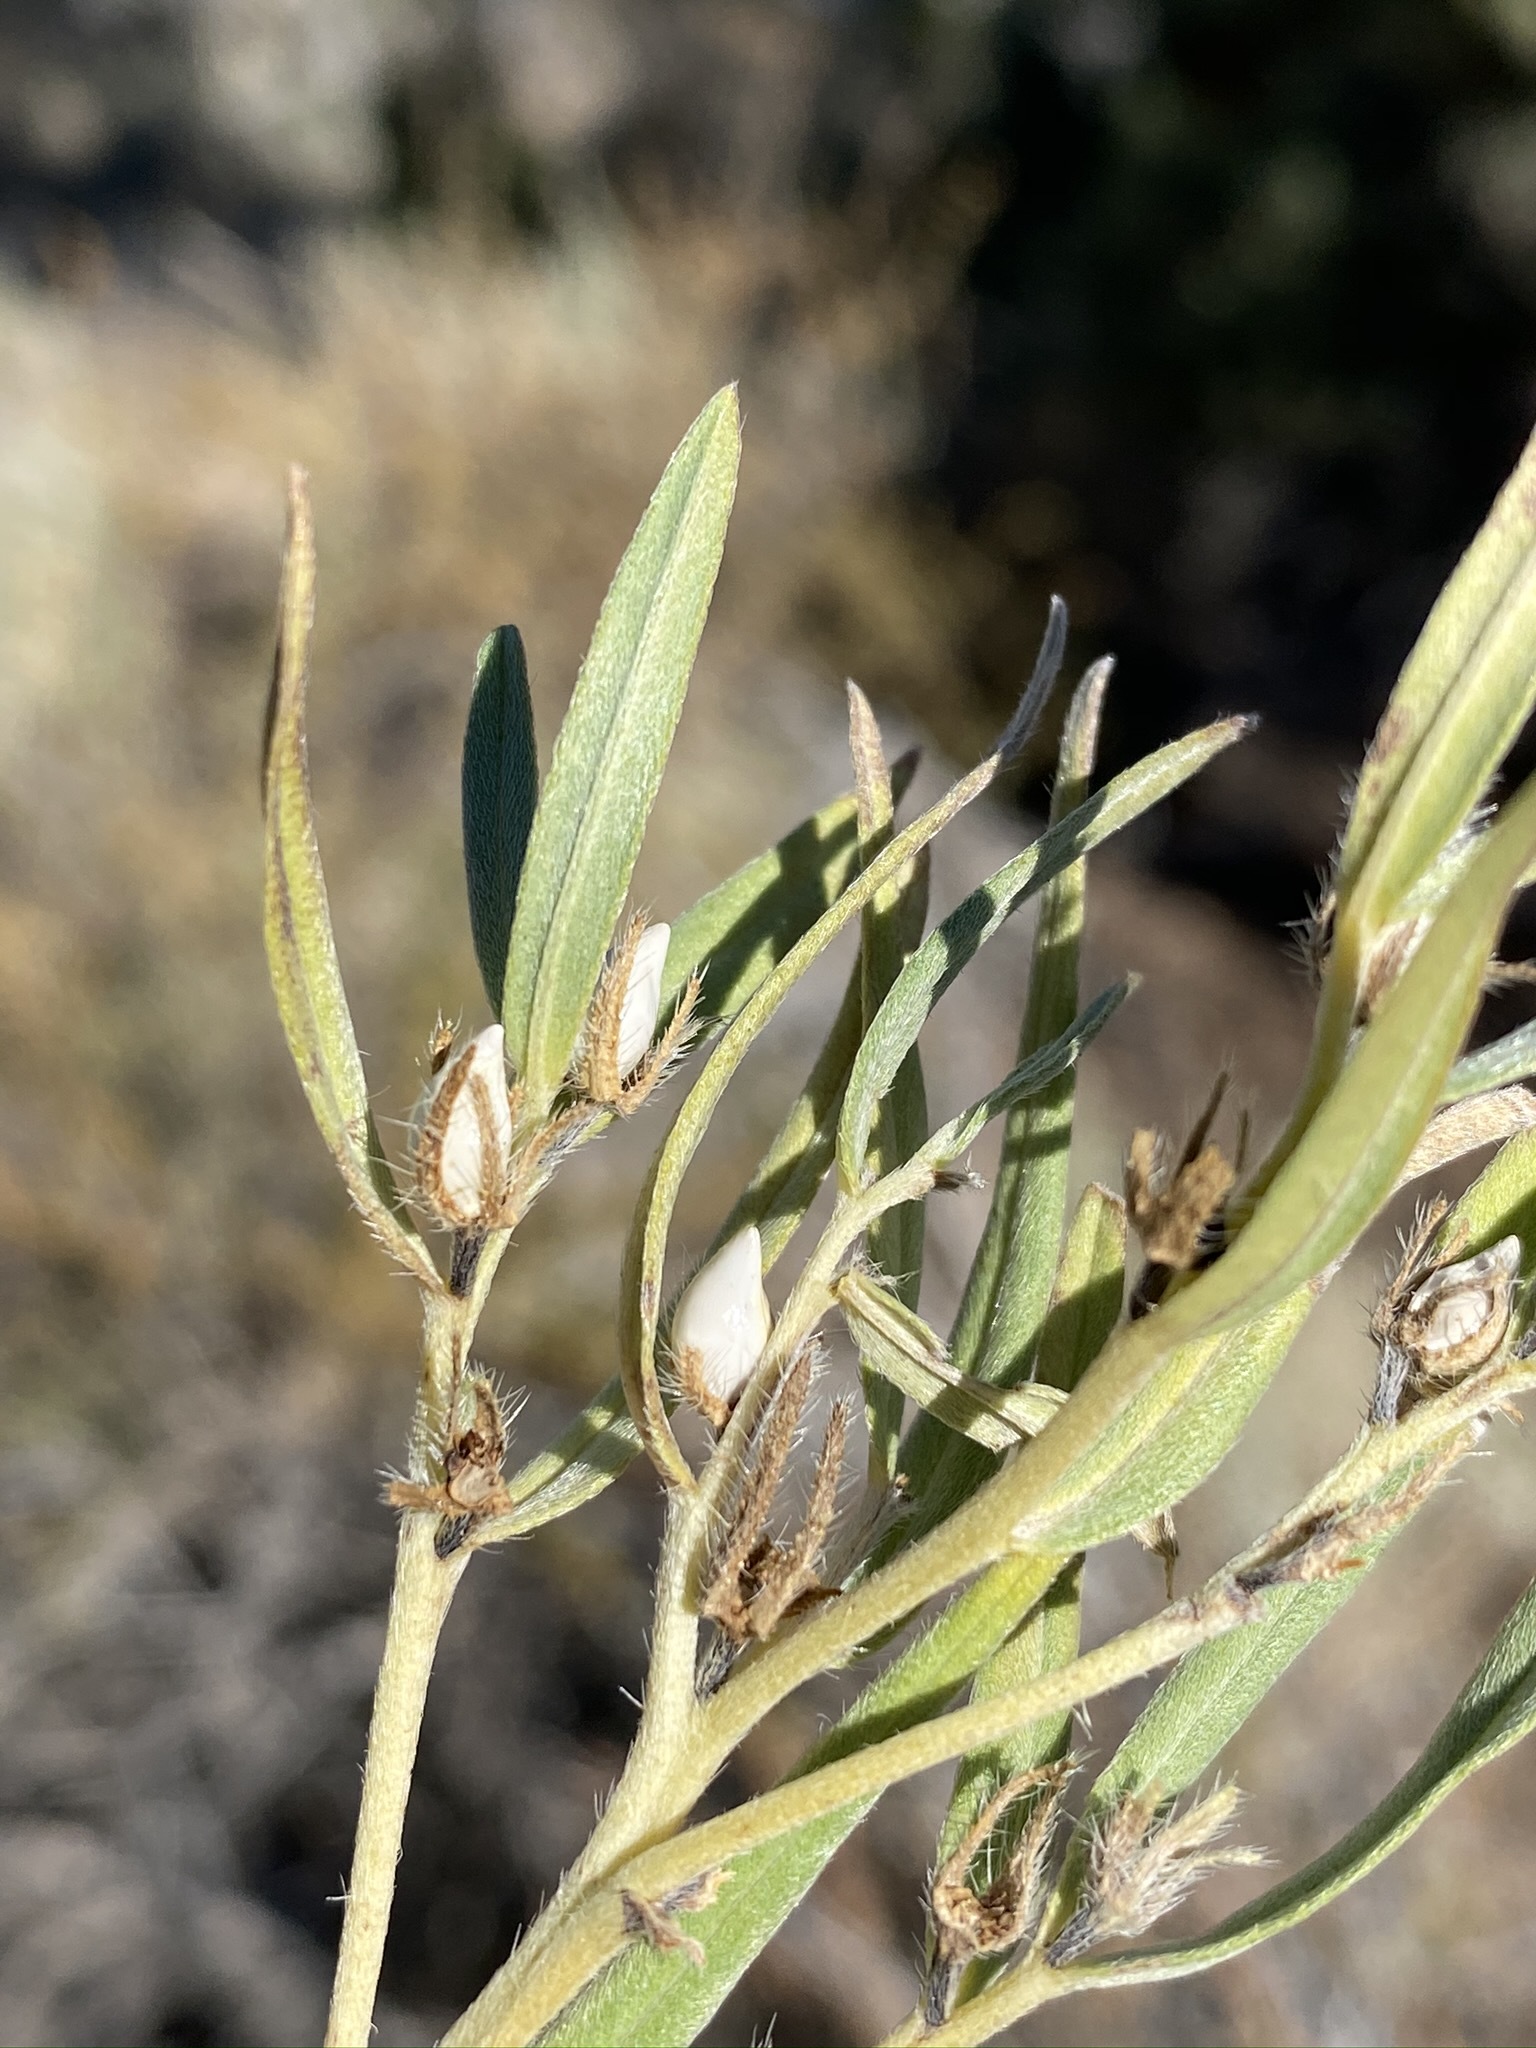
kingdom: Plantae
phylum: Tracheophyta
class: Magnoliopsida
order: Boraginales
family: Boraginaceae
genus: Lithospermum
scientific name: Lithospermum ruderale
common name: Western gromwell
